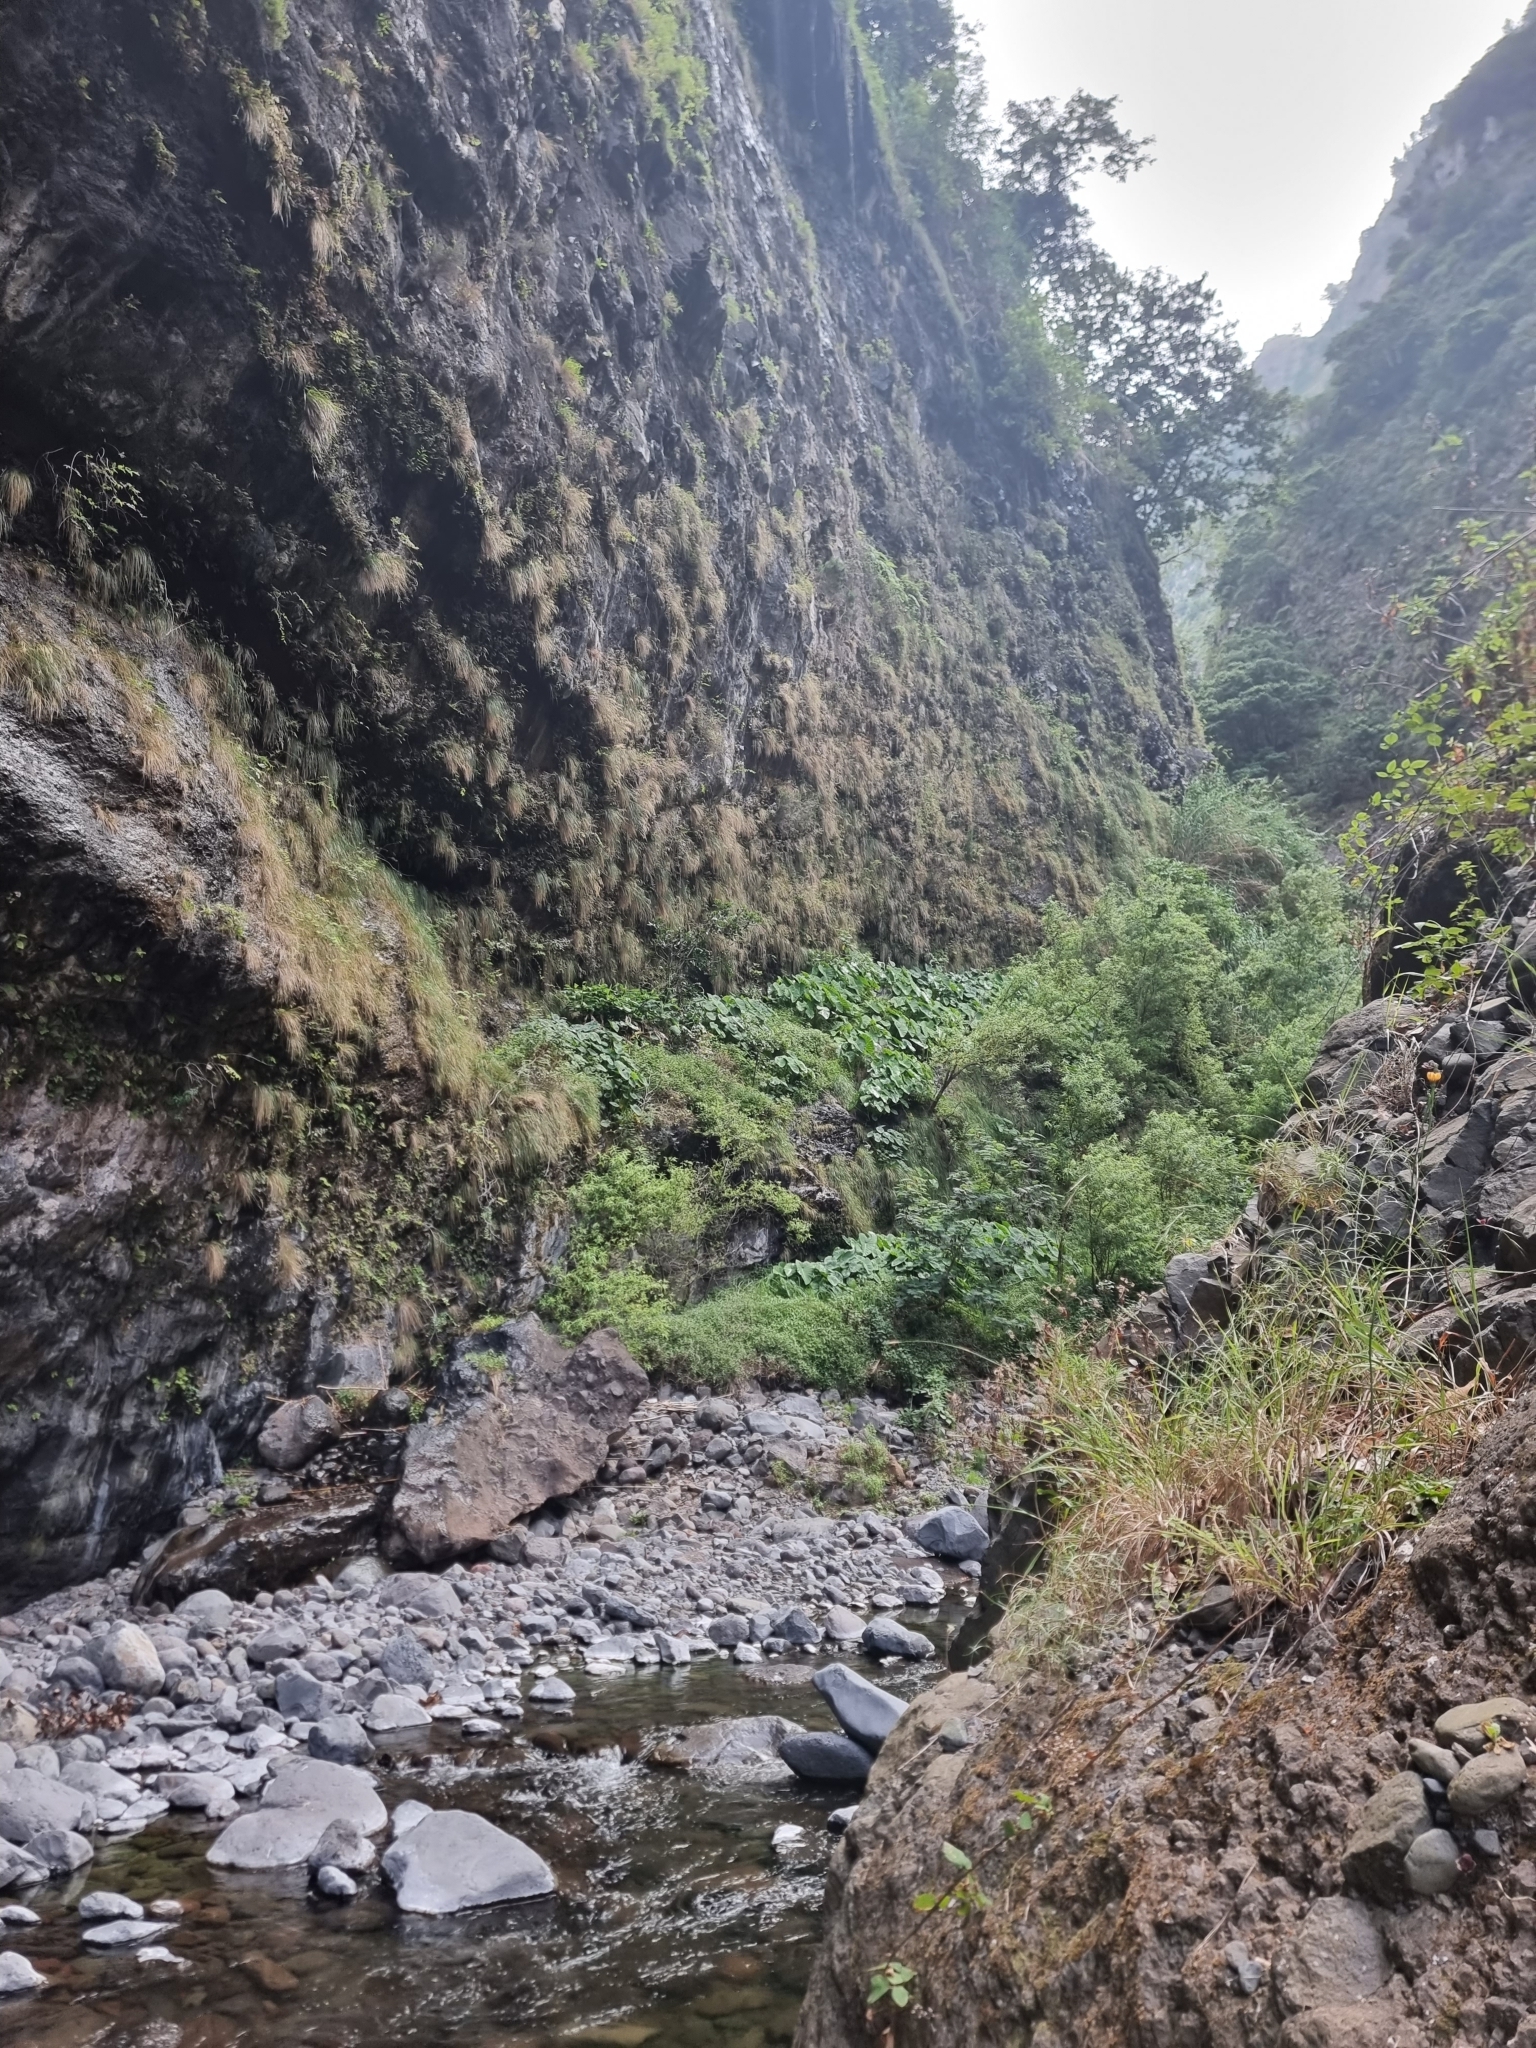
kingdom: Plantae
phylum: Tracheophyta
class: Liliopsida
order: Alismatales
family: Araceae
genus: Colocasia
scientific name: Colocasia esculenta
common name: Taro
